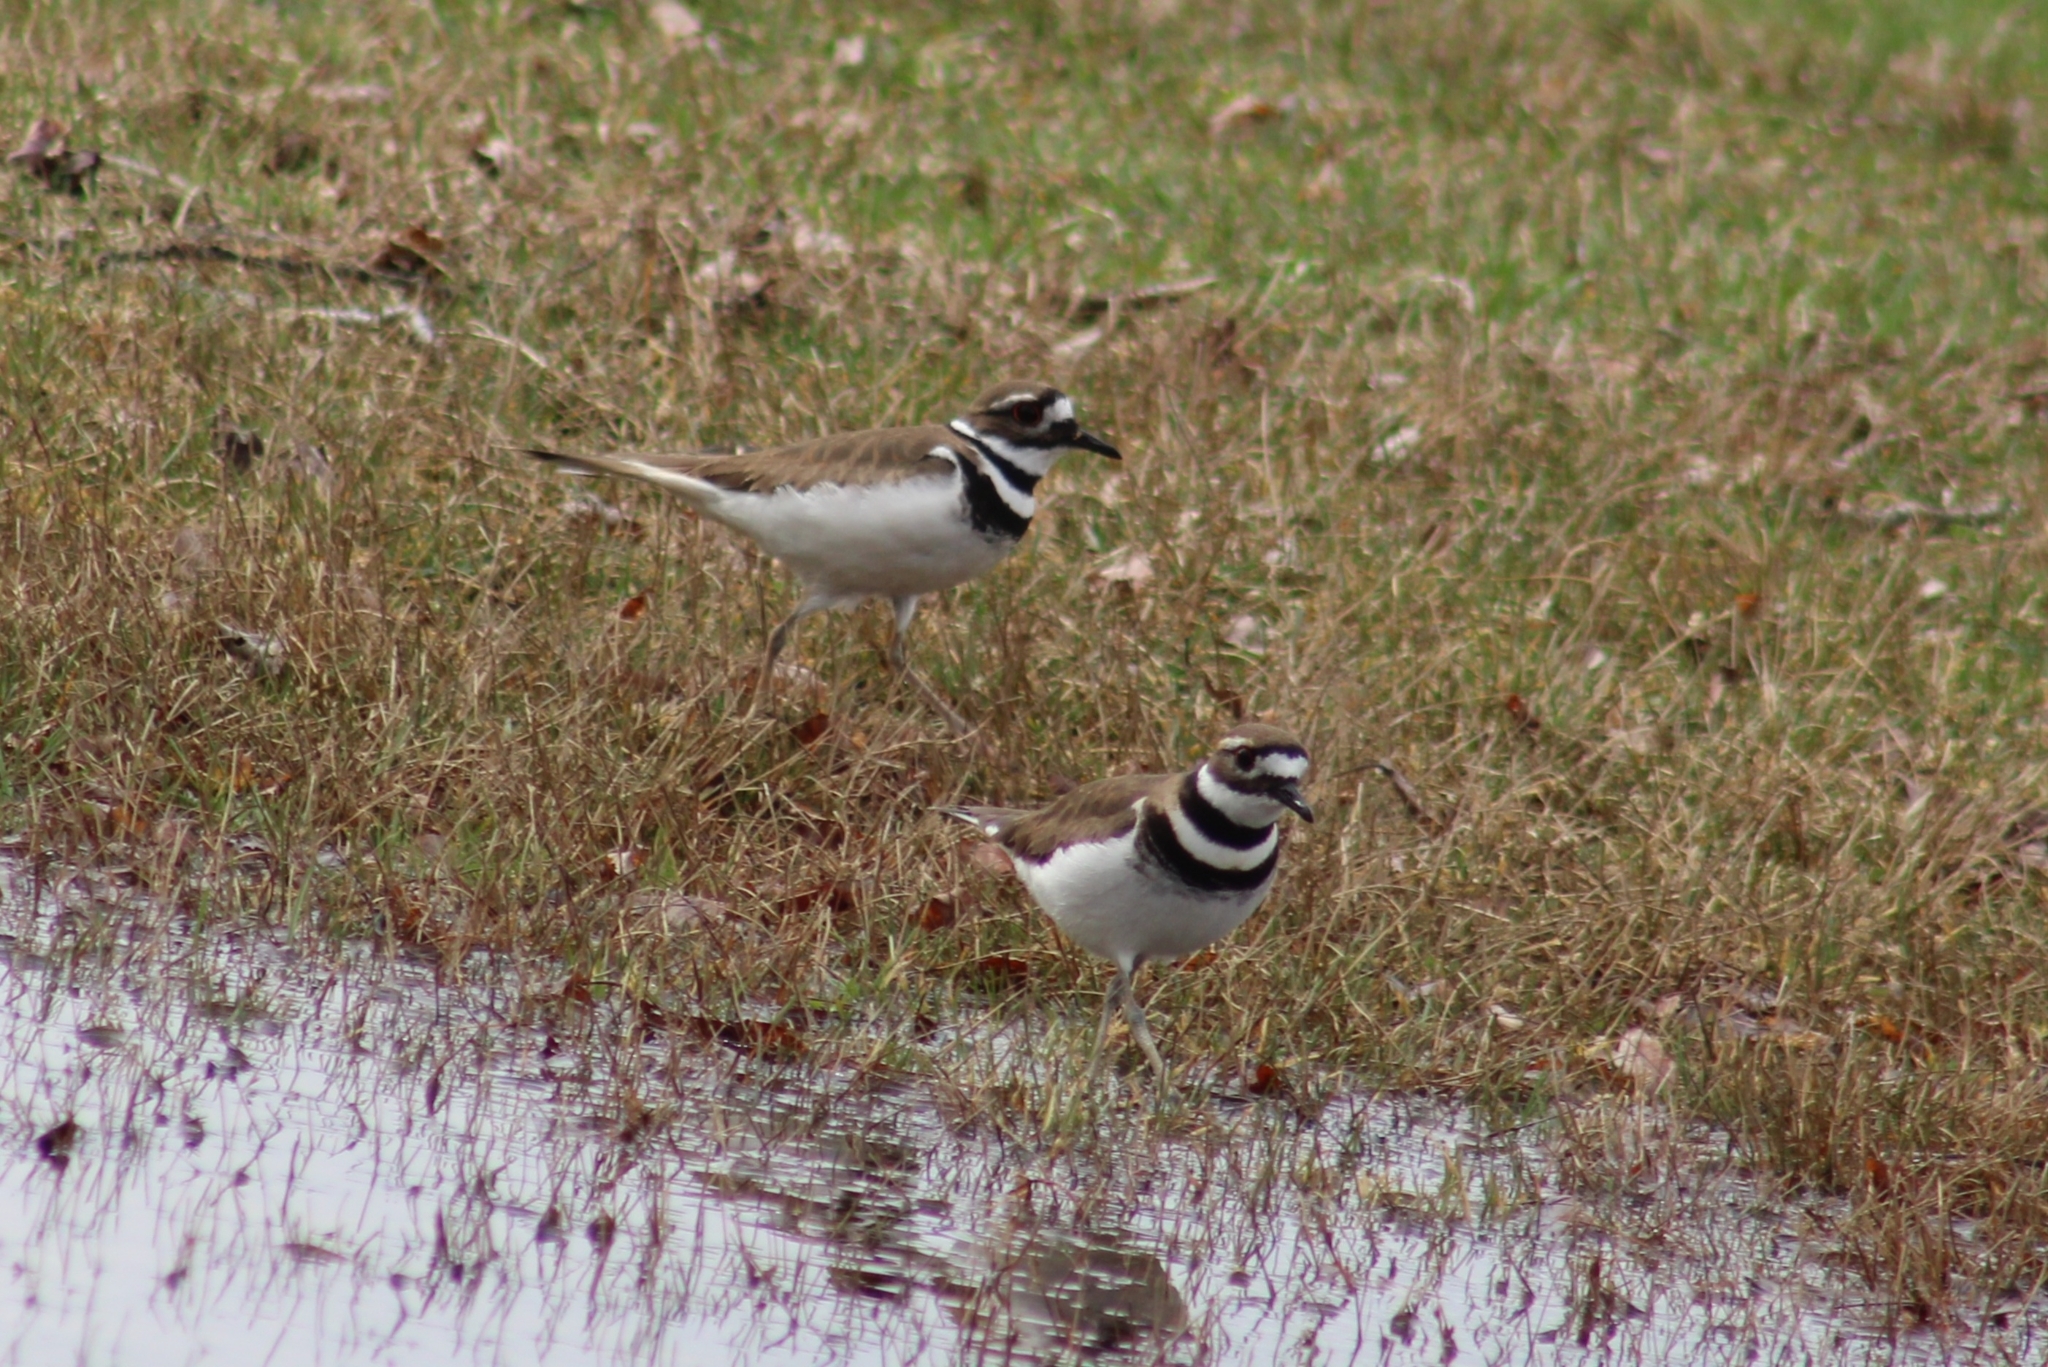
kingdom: Animalia
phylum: Chordata
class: Aves
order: Charadriiformes
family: Charadriidae
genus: Charadrius
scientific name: Charadrius vociferus
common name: Killdeer
